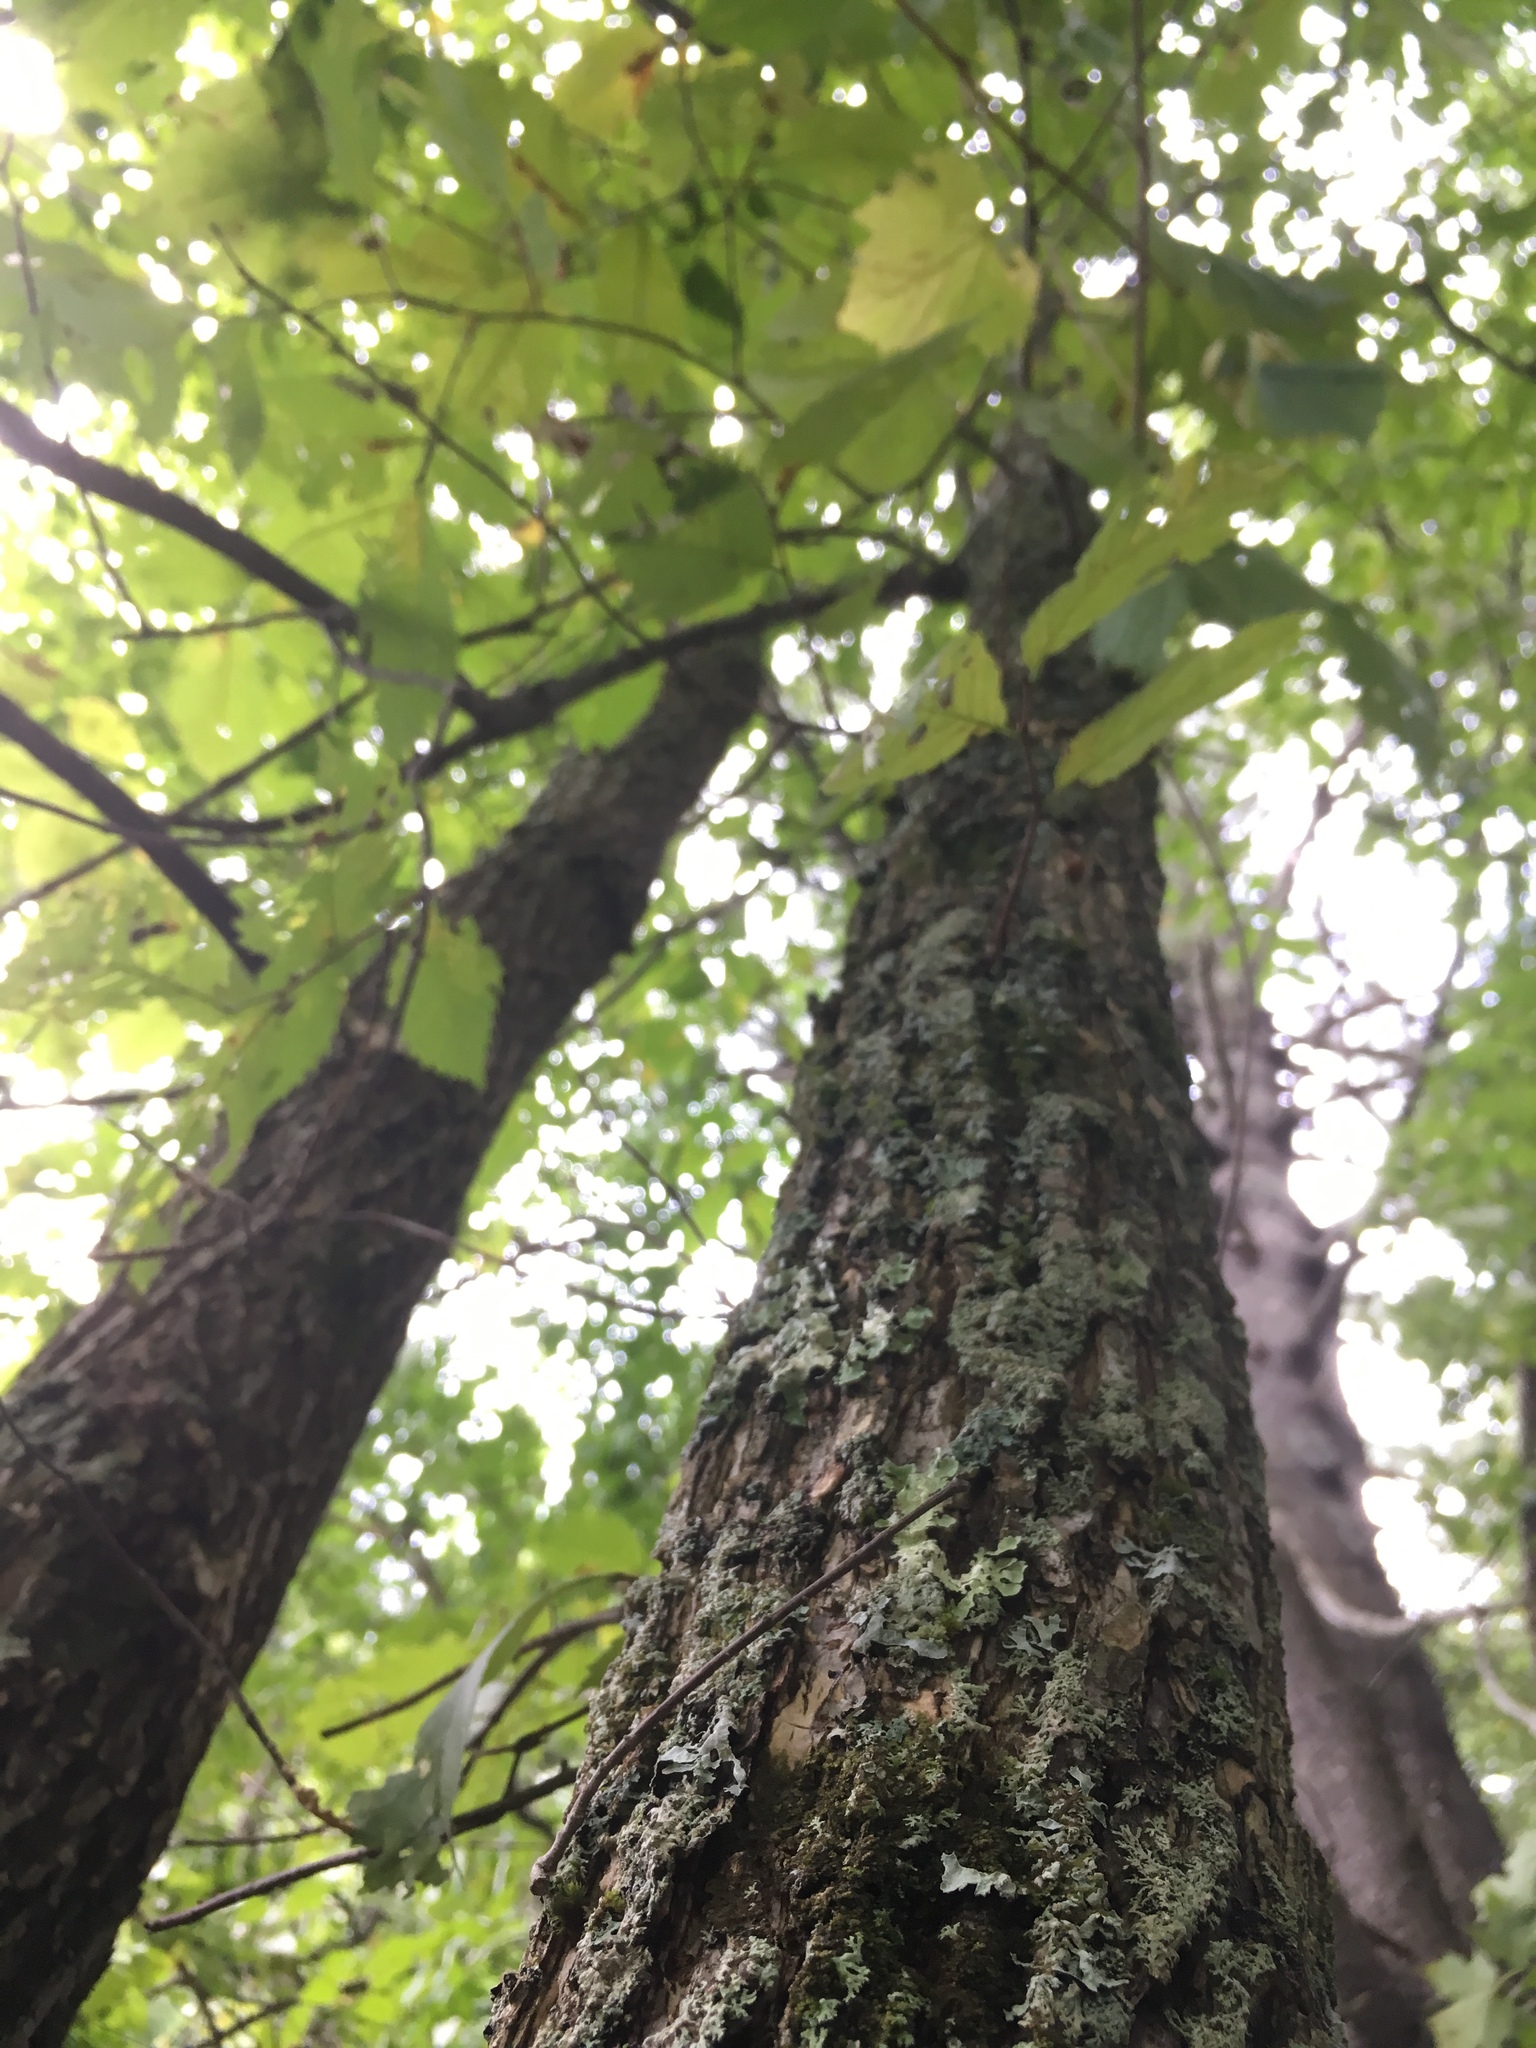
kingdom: Plantae
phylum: Tracheophyta
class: Magnoliopsida
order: Rosales
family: Ulmaceae
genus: Ulmus
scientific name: Ulmus americana
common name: American elm
